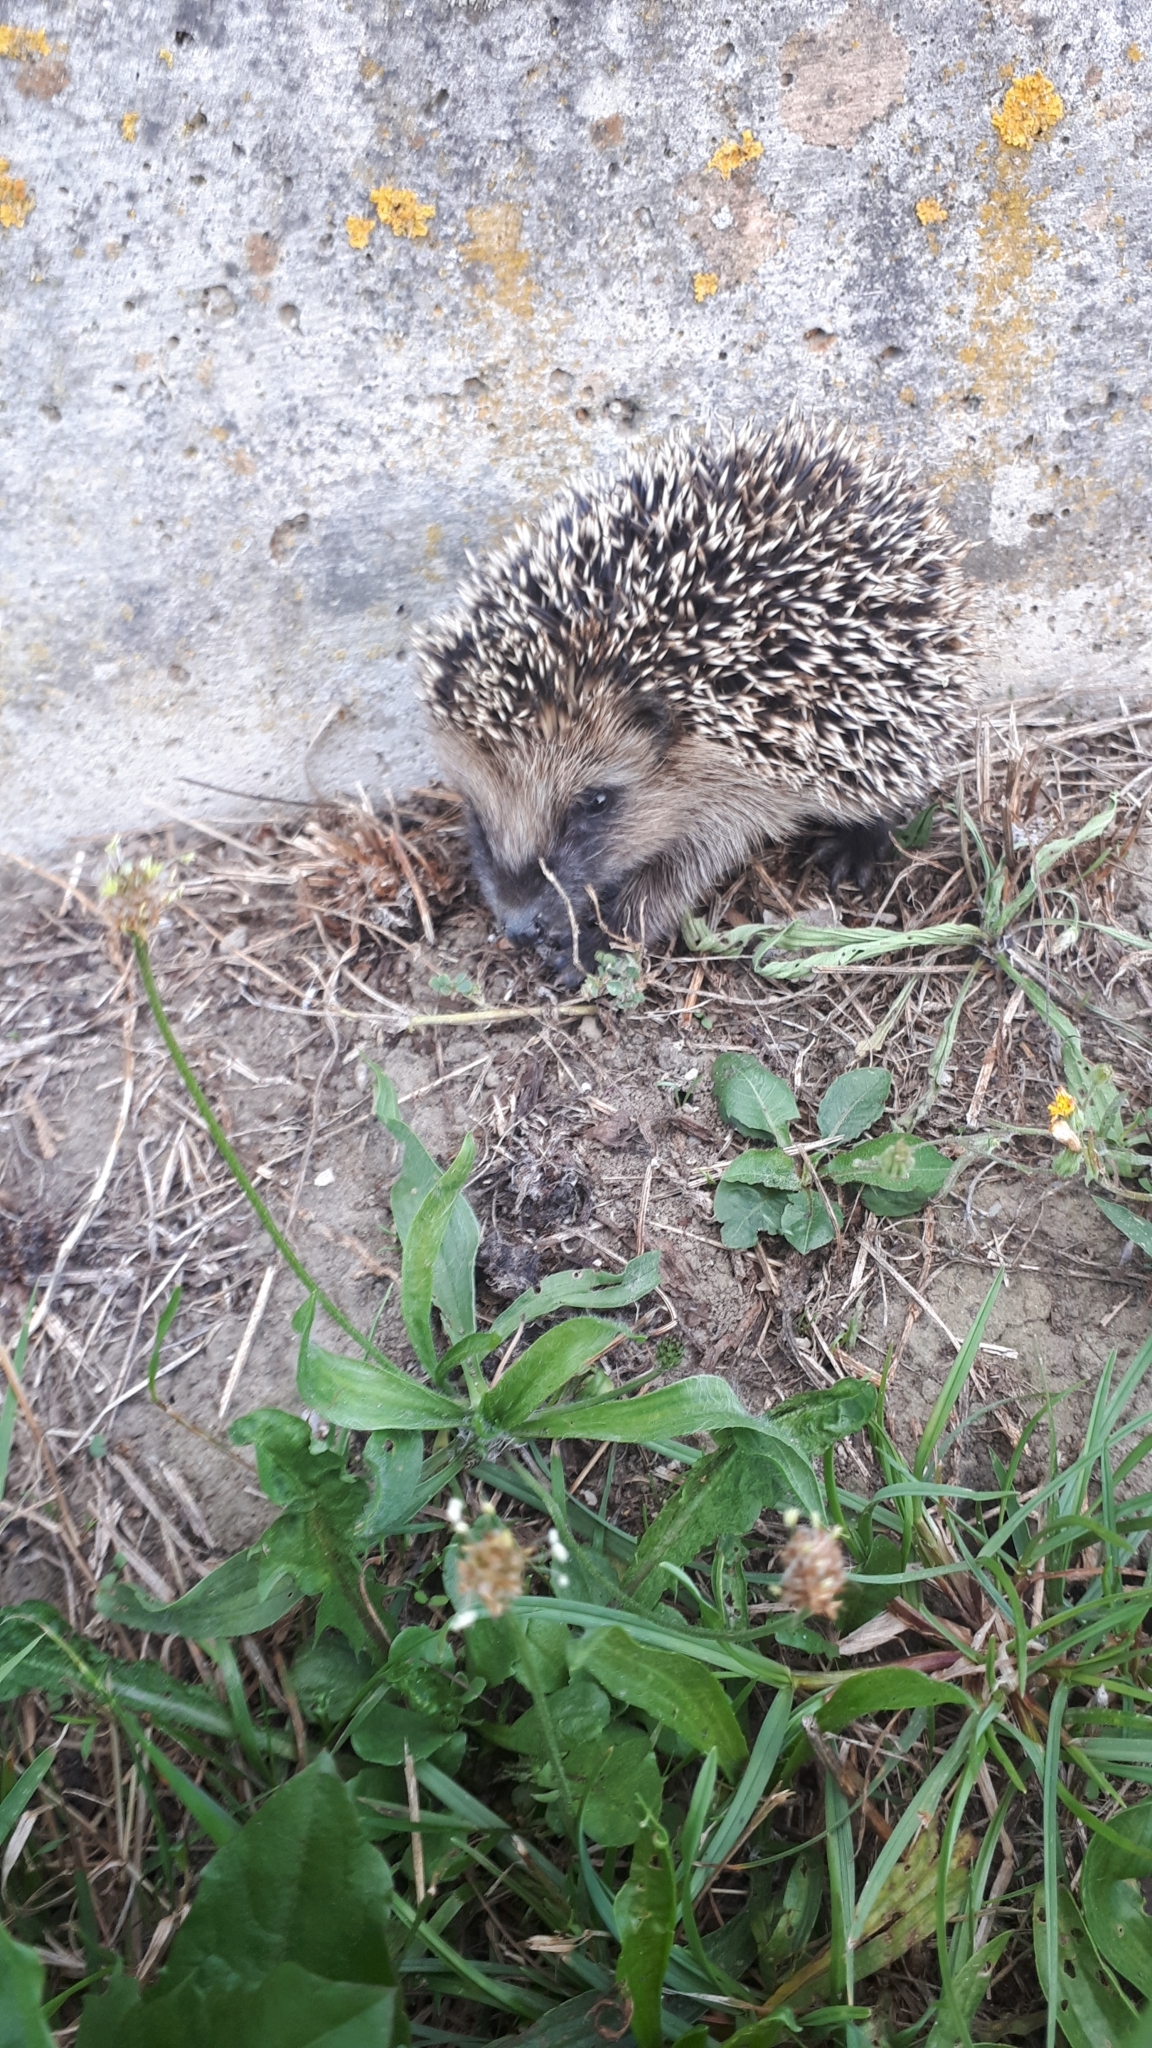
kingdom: Animalia
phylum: Chordata
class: Mammalia
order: Erinaceomorpha
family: Erinaceidae
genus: Erinaceus
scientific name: Erinaceus europaeus
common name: West european hedgehog
